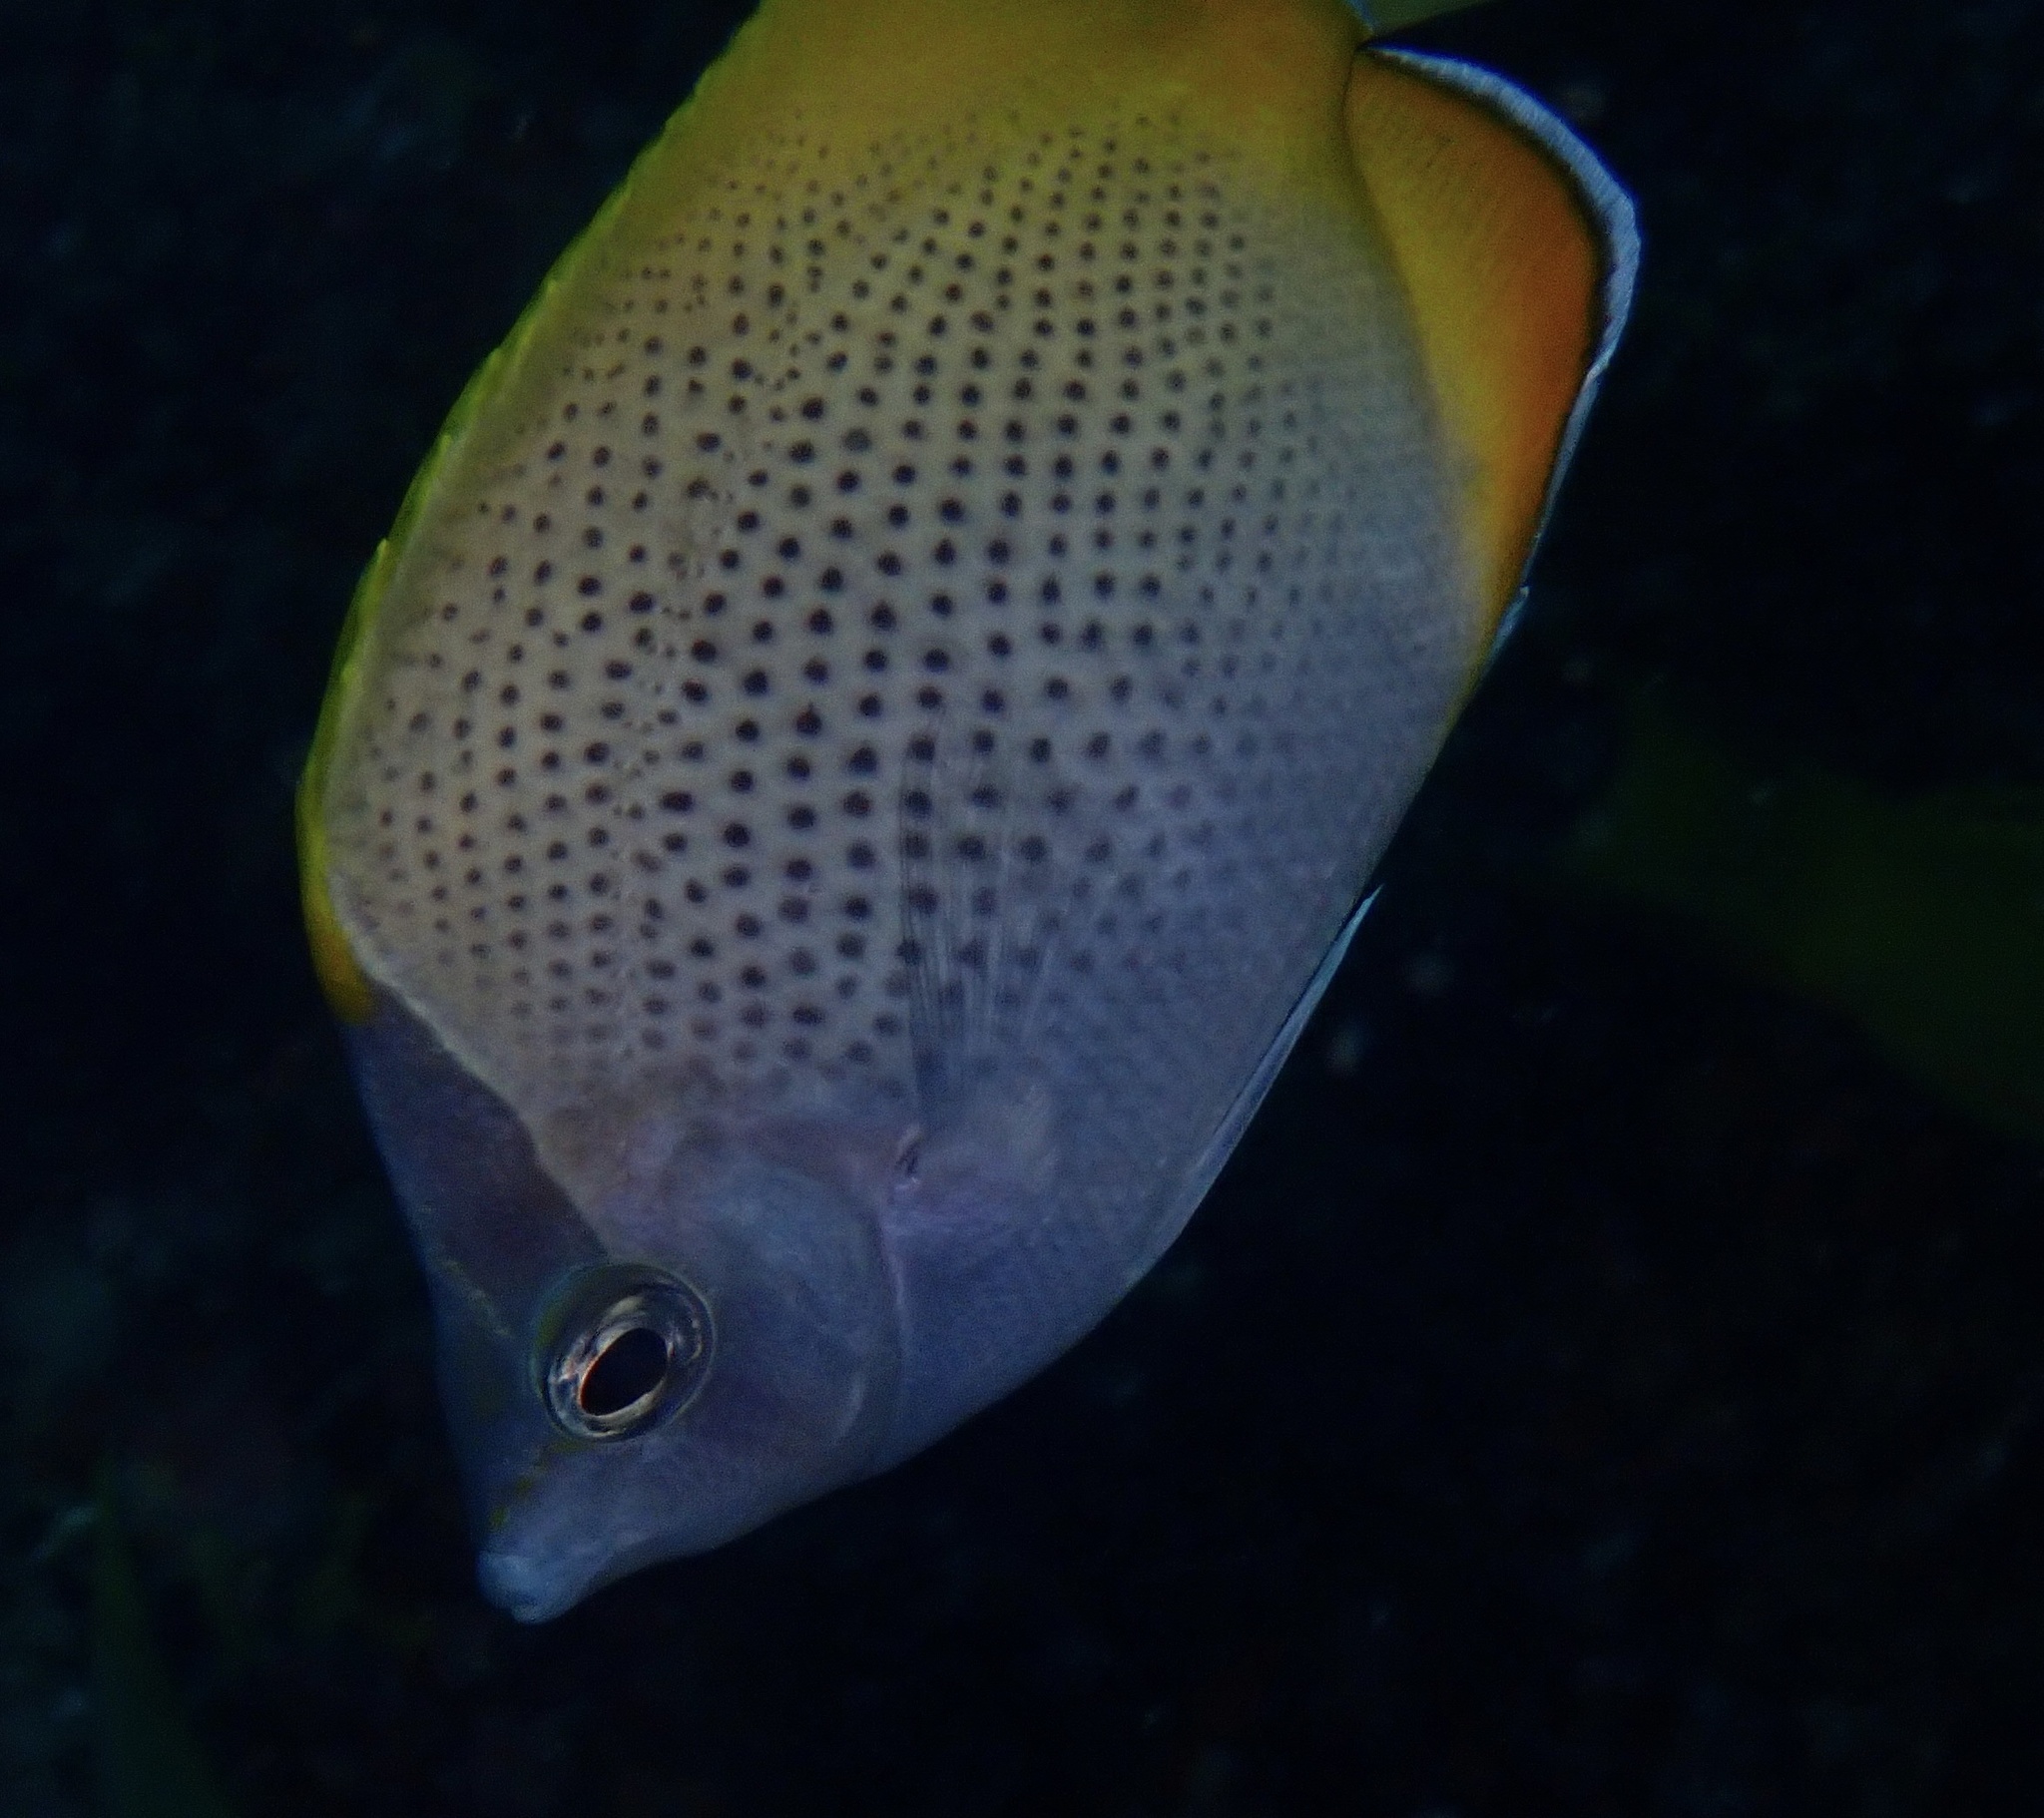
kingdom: Animalia
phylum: Chordata
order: Perciformes
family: Chaetodontidae
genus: Chaetodon
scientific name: Chaetodon guentheri
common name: Gunther's butterflyfish
